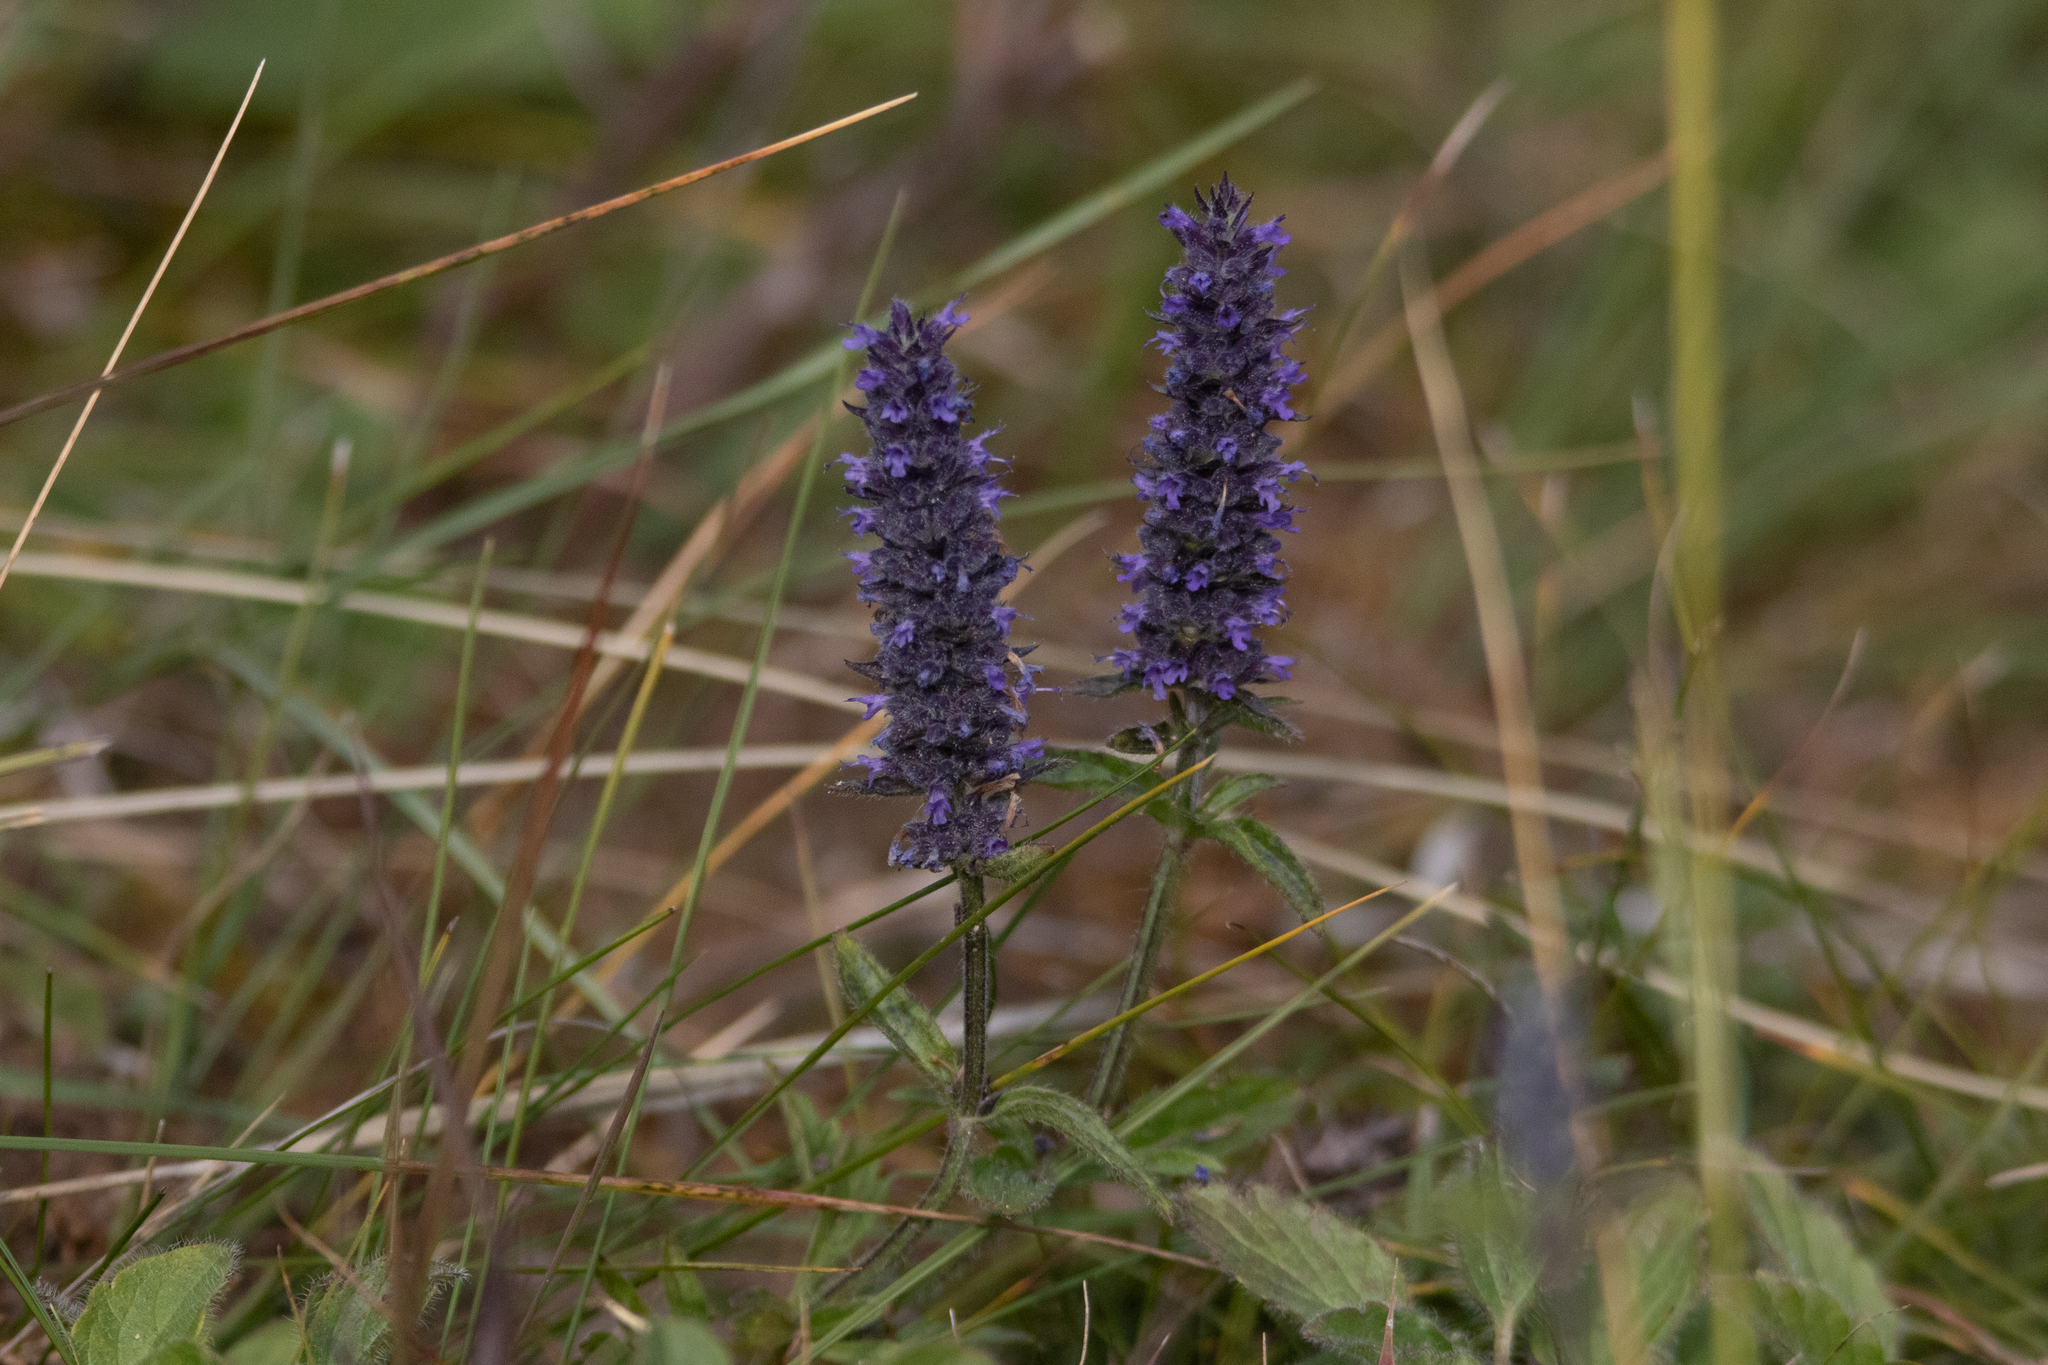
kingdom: Plantae
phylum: Tracheophyta
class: Magnoliopsida
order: Lamiales
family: Lamiaceae
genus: Nepeta
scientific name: Nepeta multifida
